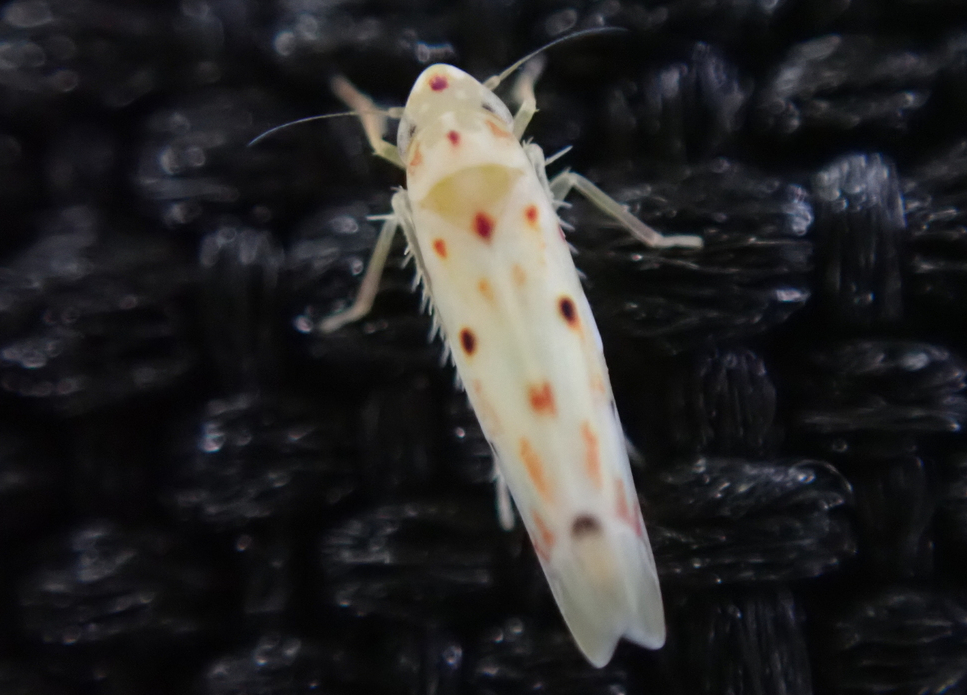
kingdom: Animalia
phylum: Arthropoda
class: Insecta
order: Hemiptera
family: Cicadellidae
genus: Illinigina
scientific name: Illinigina illinoiensis
